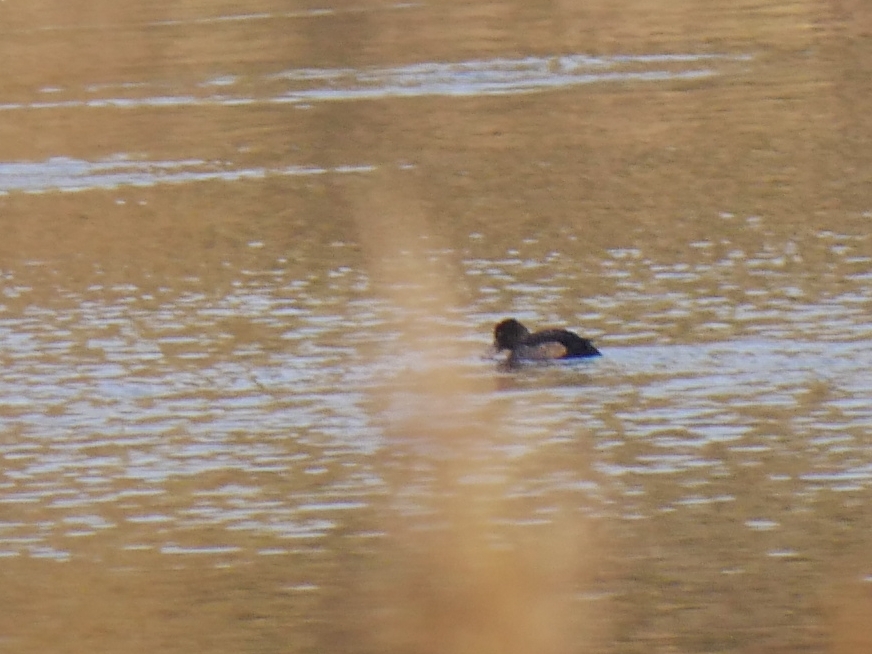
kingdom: Animalia
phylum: Chordata
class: Aves
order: Anseriformes
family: Anatidae
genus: Aythya
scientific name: Aythya fuligula
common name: Tufted duck
